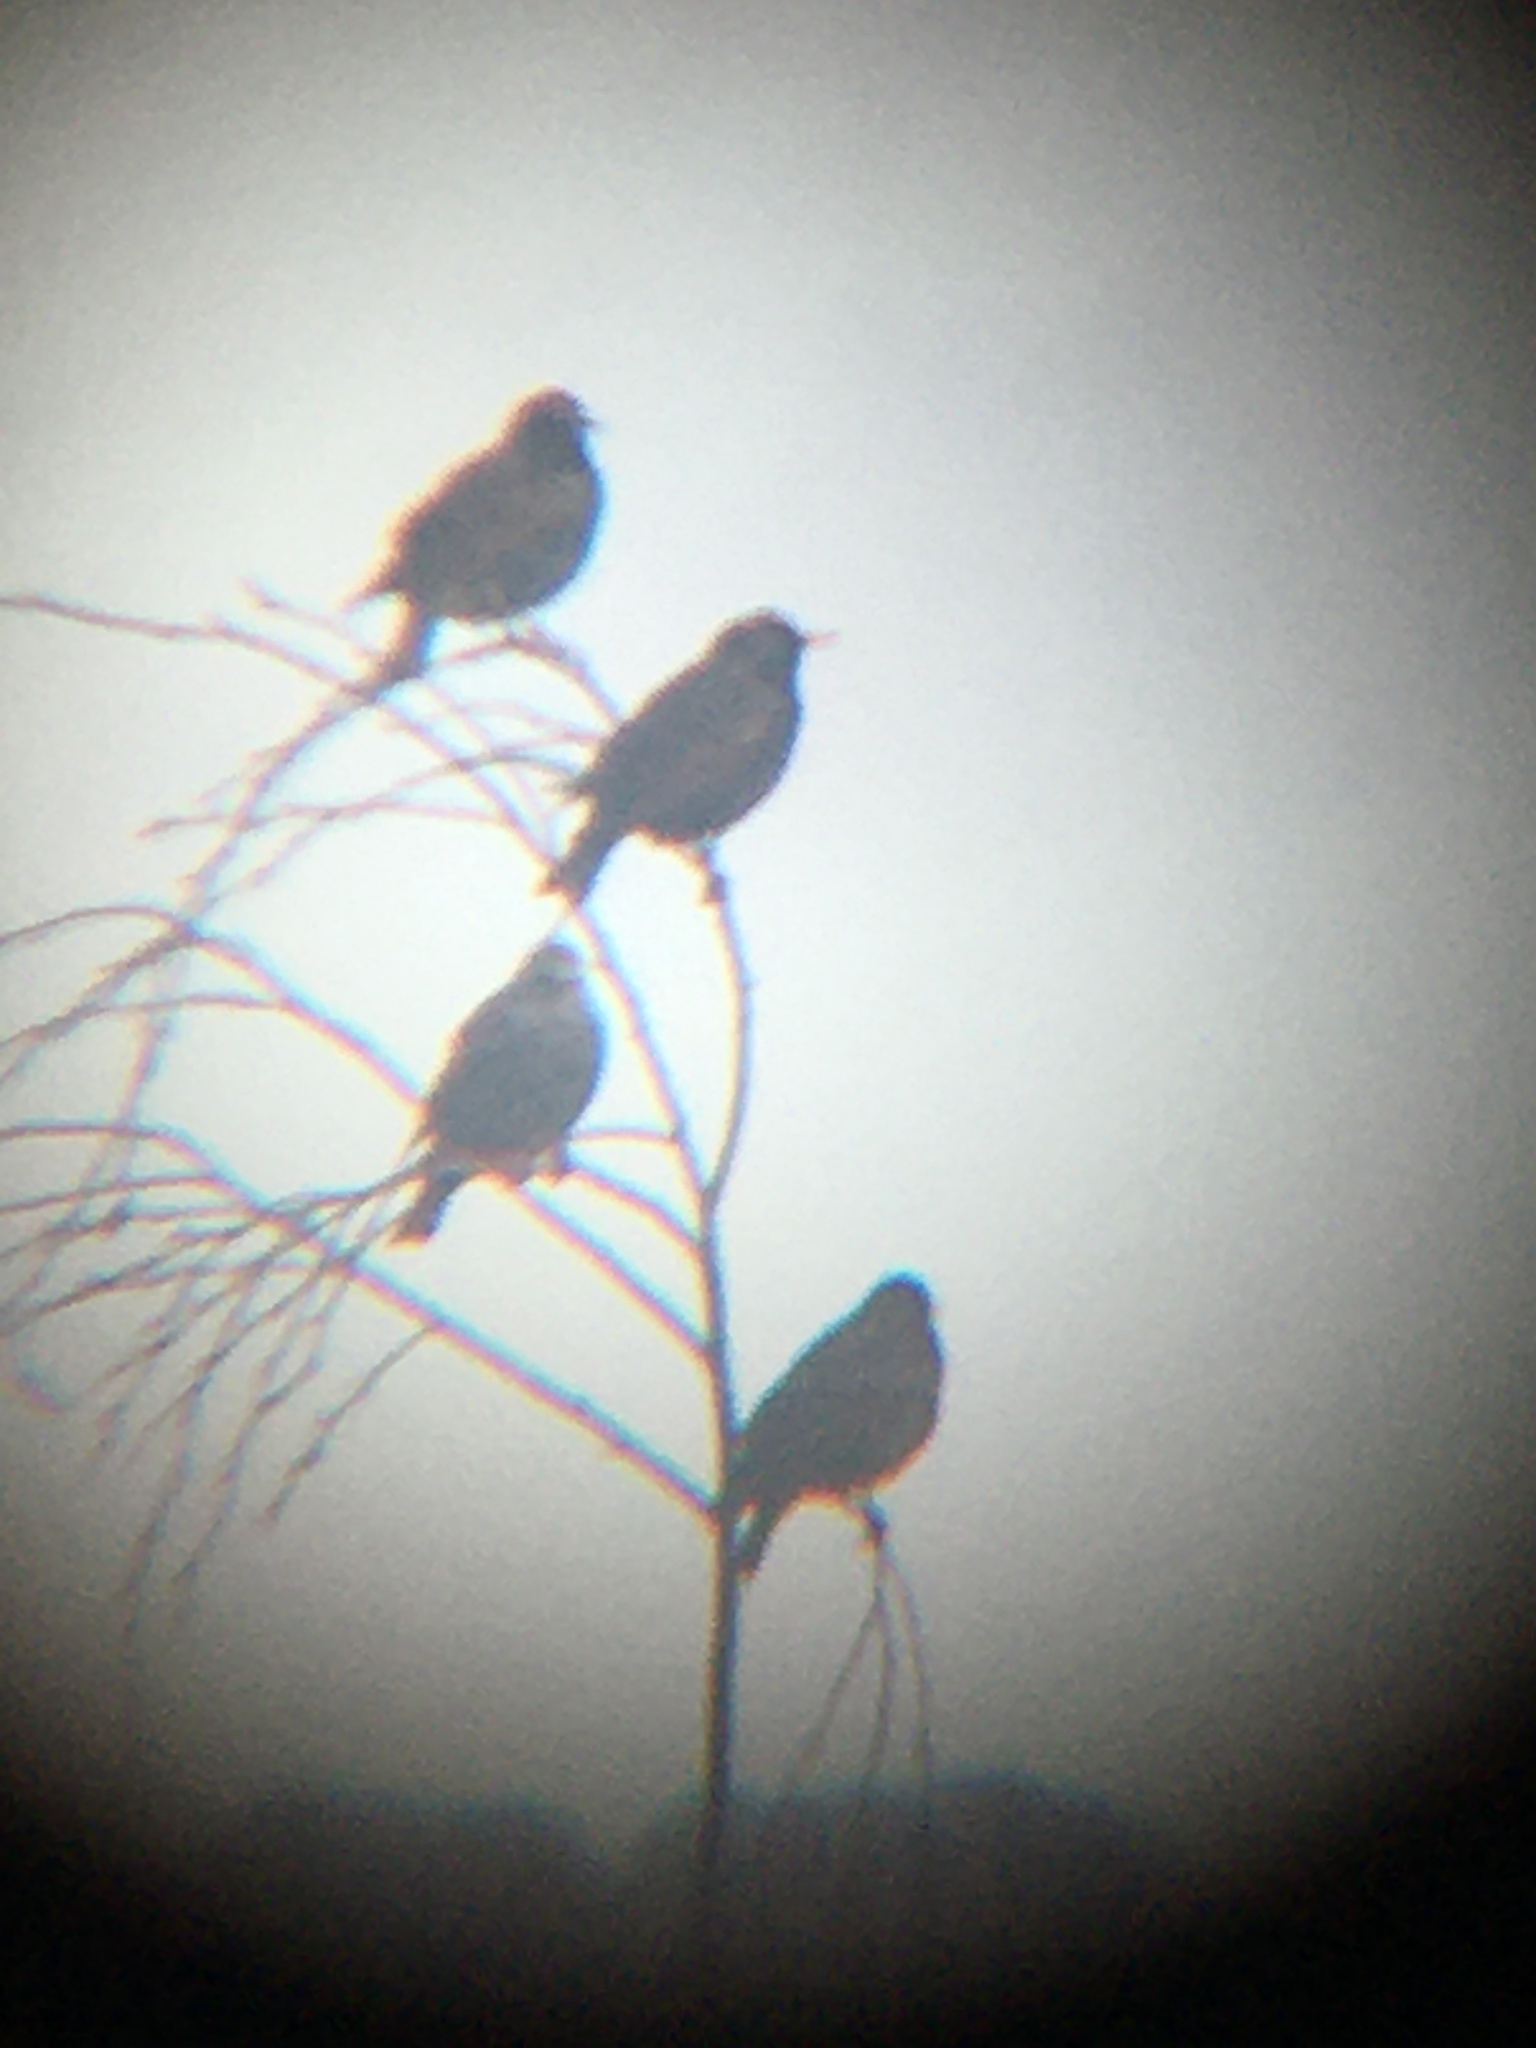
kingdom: Animalia
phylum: Chordata
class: Aves
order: Passeriformes
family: Sturnidae
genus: Sturnus
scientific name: Sturnus vulgaris
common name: Common starling
